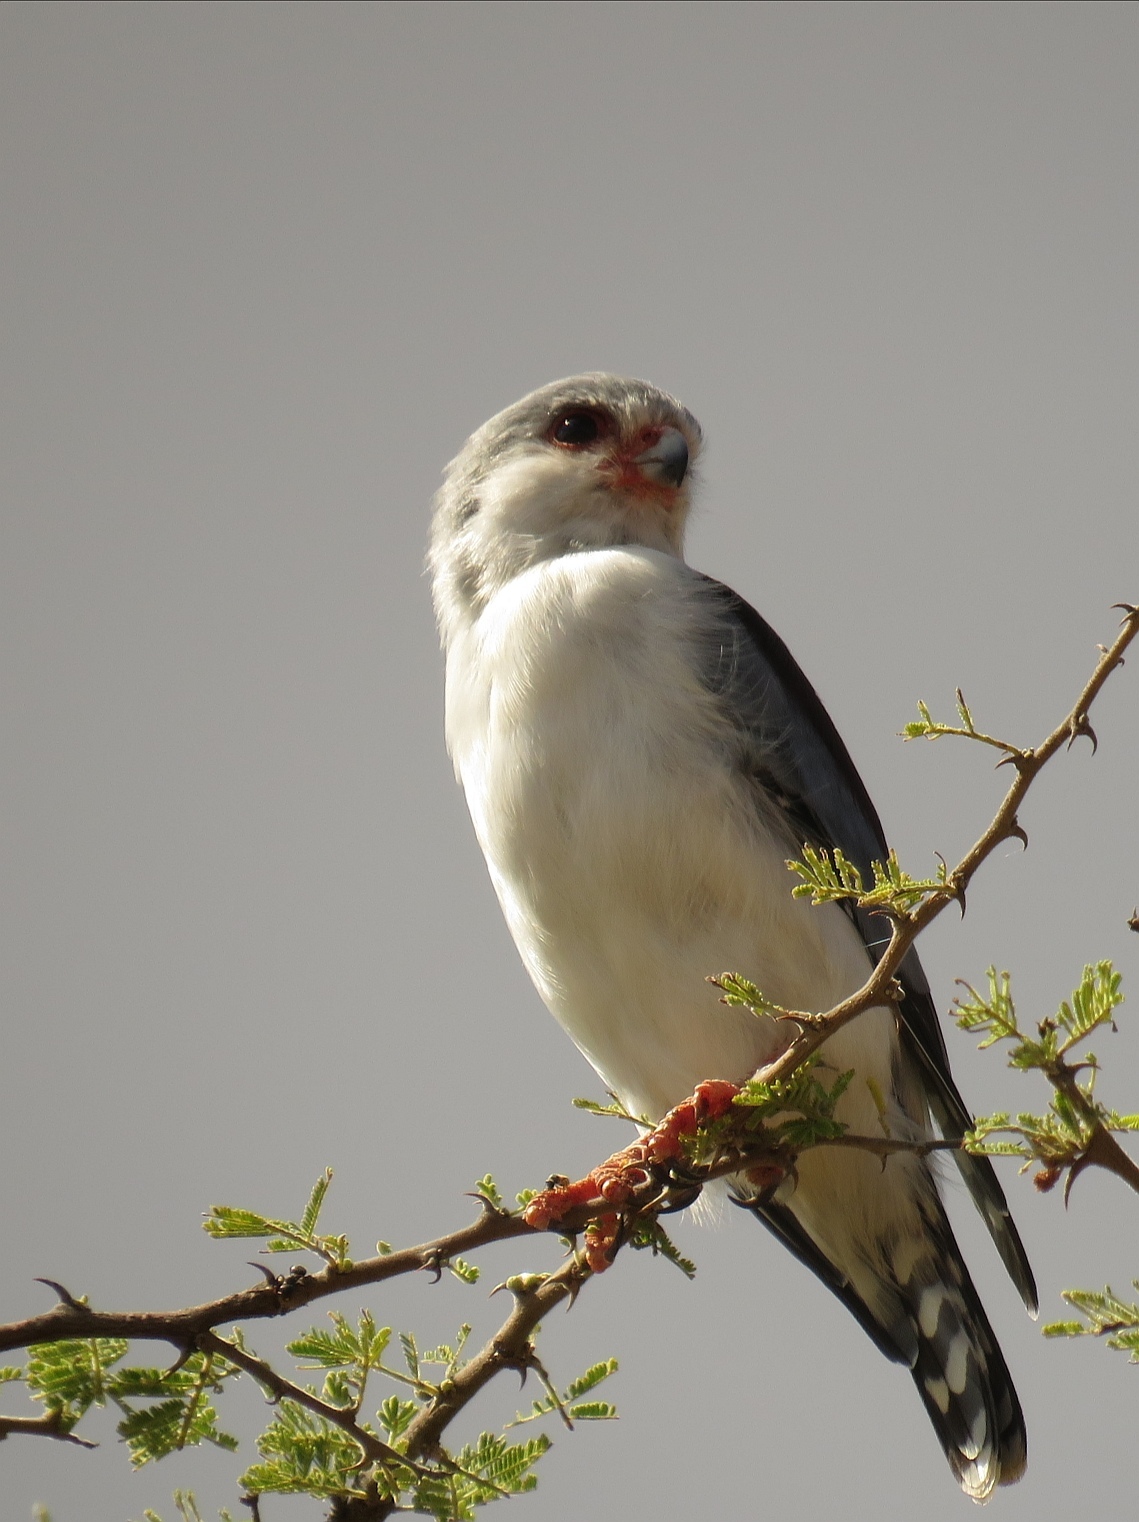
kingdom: Animalia
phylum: Chordata
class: Aves
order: Falconiformes
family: Falconidae
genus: Polihierax
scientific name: Polihierax semitorquatus
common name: Pygmy falcon
